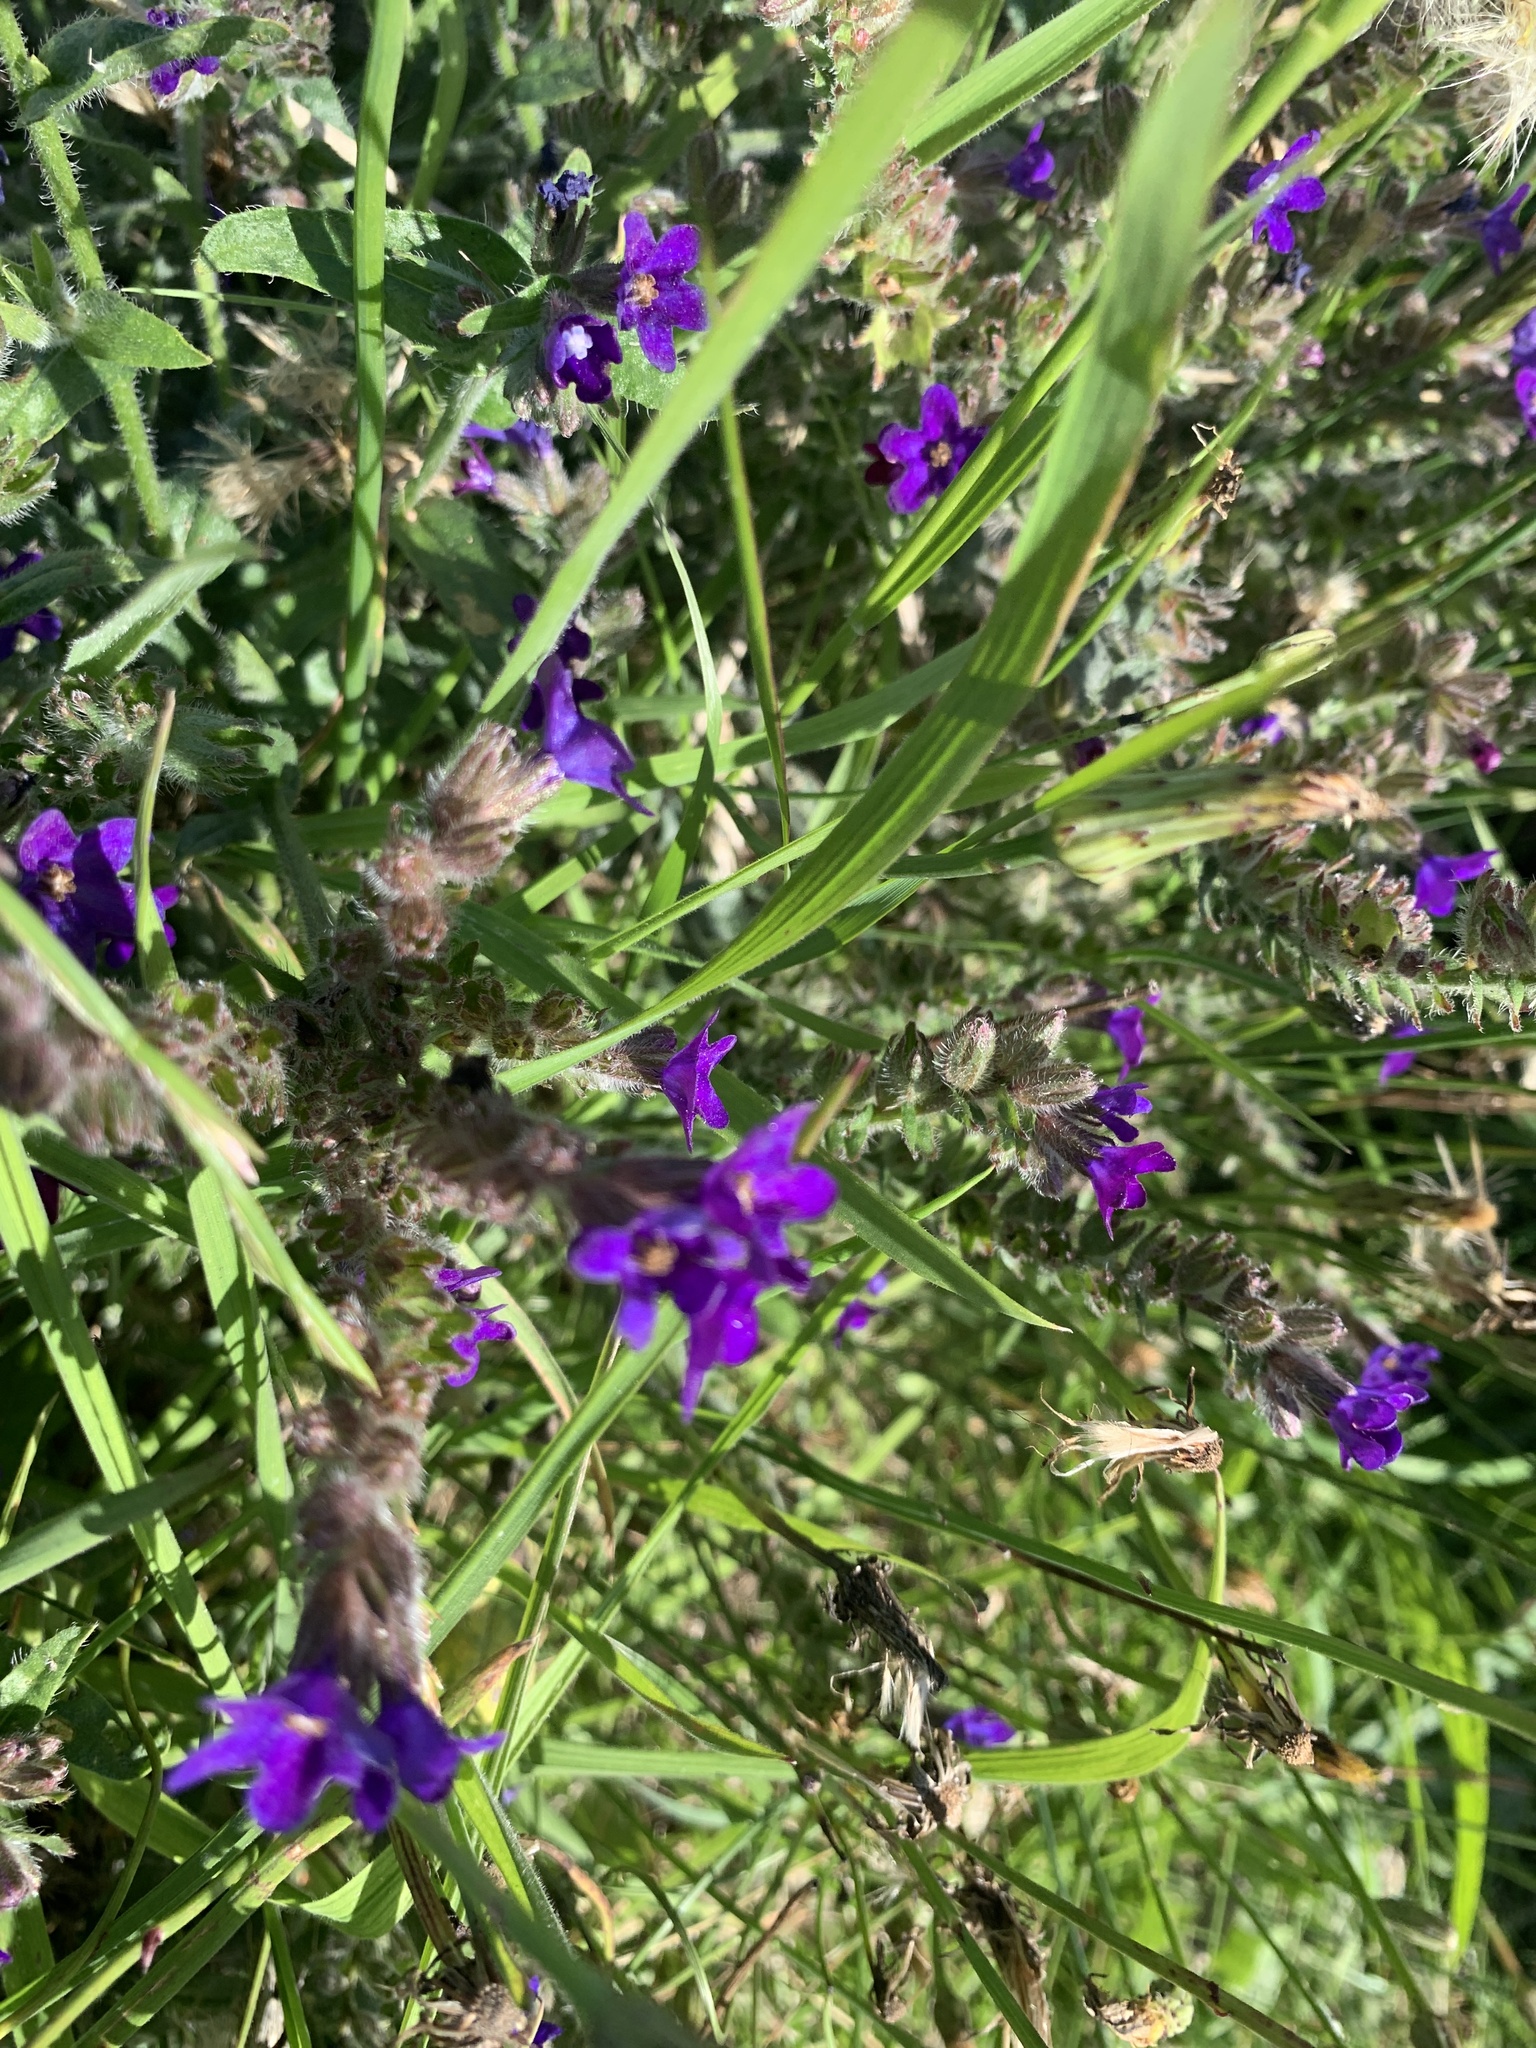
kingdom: Plantae
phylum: Tracheophyta
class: Magnoliopsida
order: Boraginales
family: Boraginaceae
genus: Anchusa
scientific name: Anchusa officinalis
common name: Alkanet
